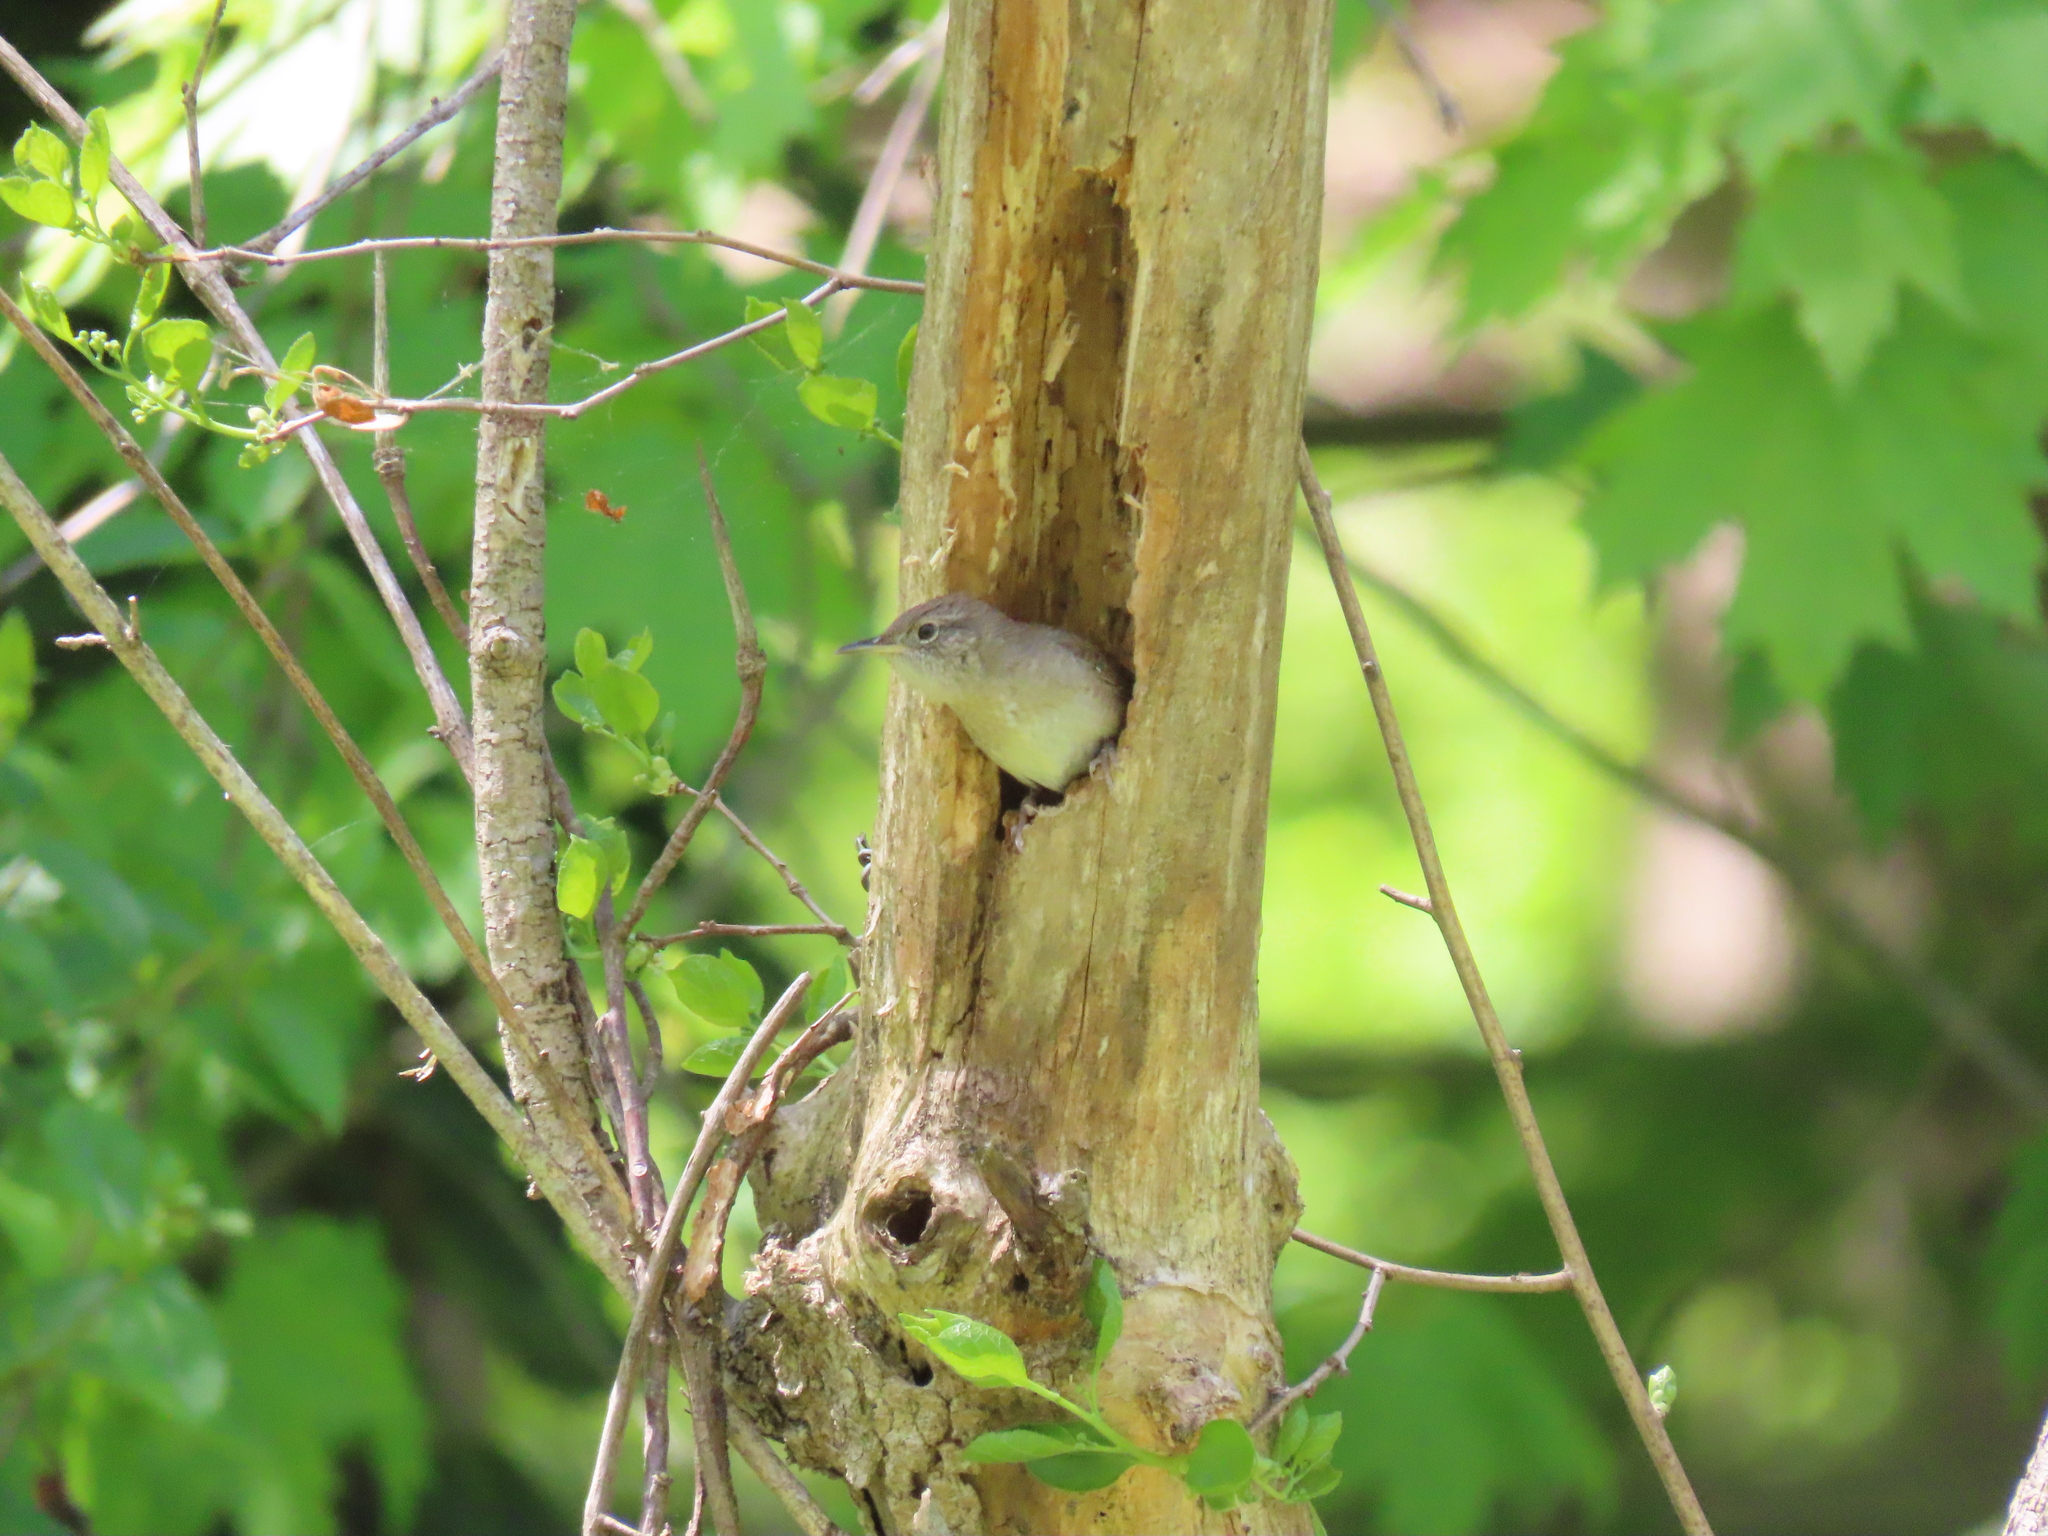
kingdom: Animalia
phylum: Chordata
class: Aves
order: Passeriformes
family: Troglodytidae
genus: Troglodytes
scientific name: Troglodytes aedon
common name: House wren
